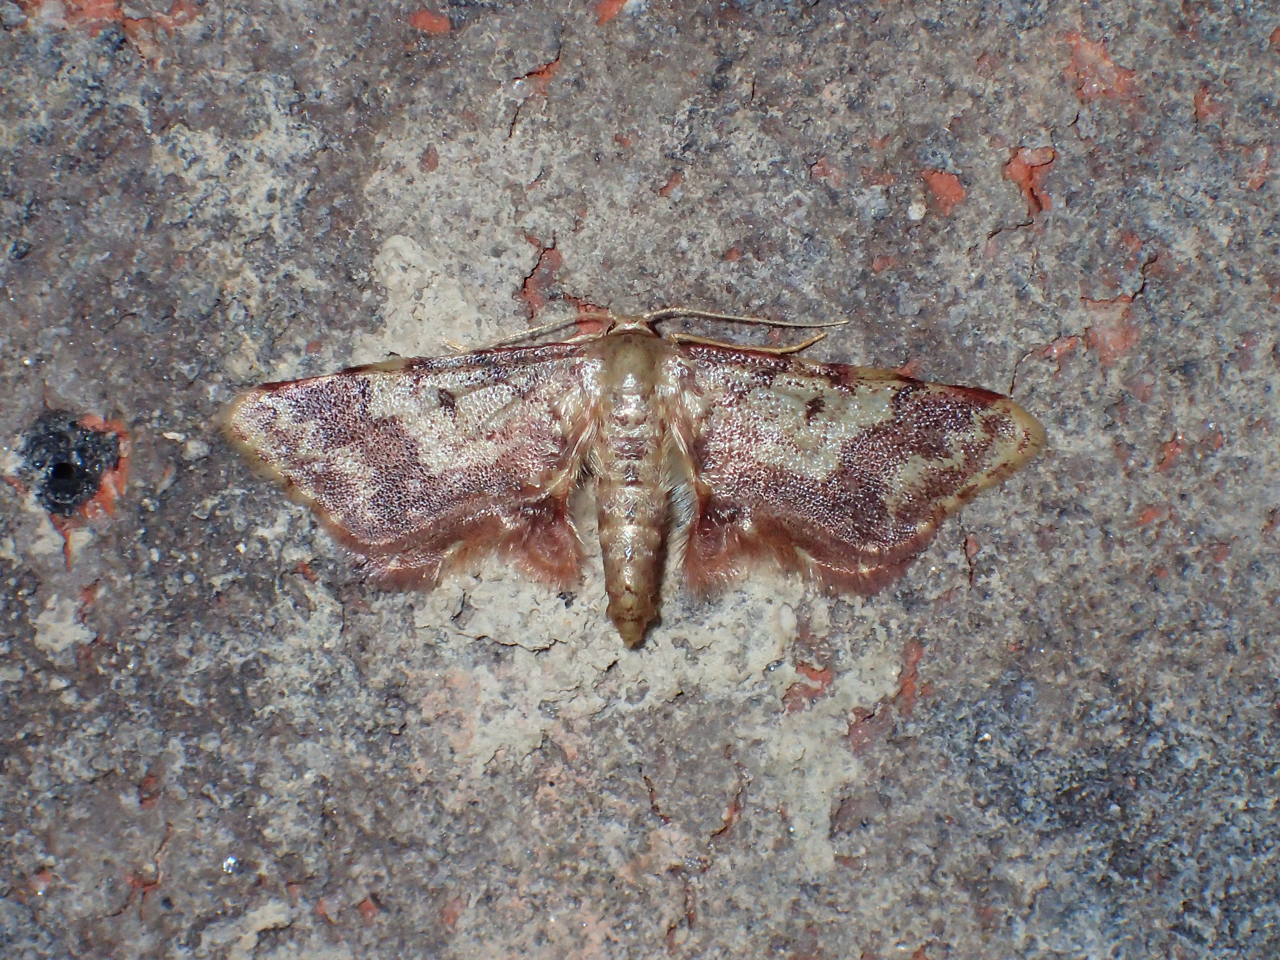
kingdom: Animalia
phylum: Arthropoda
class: Insecta
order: Lepidoptera
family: Geometridae
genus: Idaea
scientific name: Idaea furciferata
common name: Notch-winged wave
